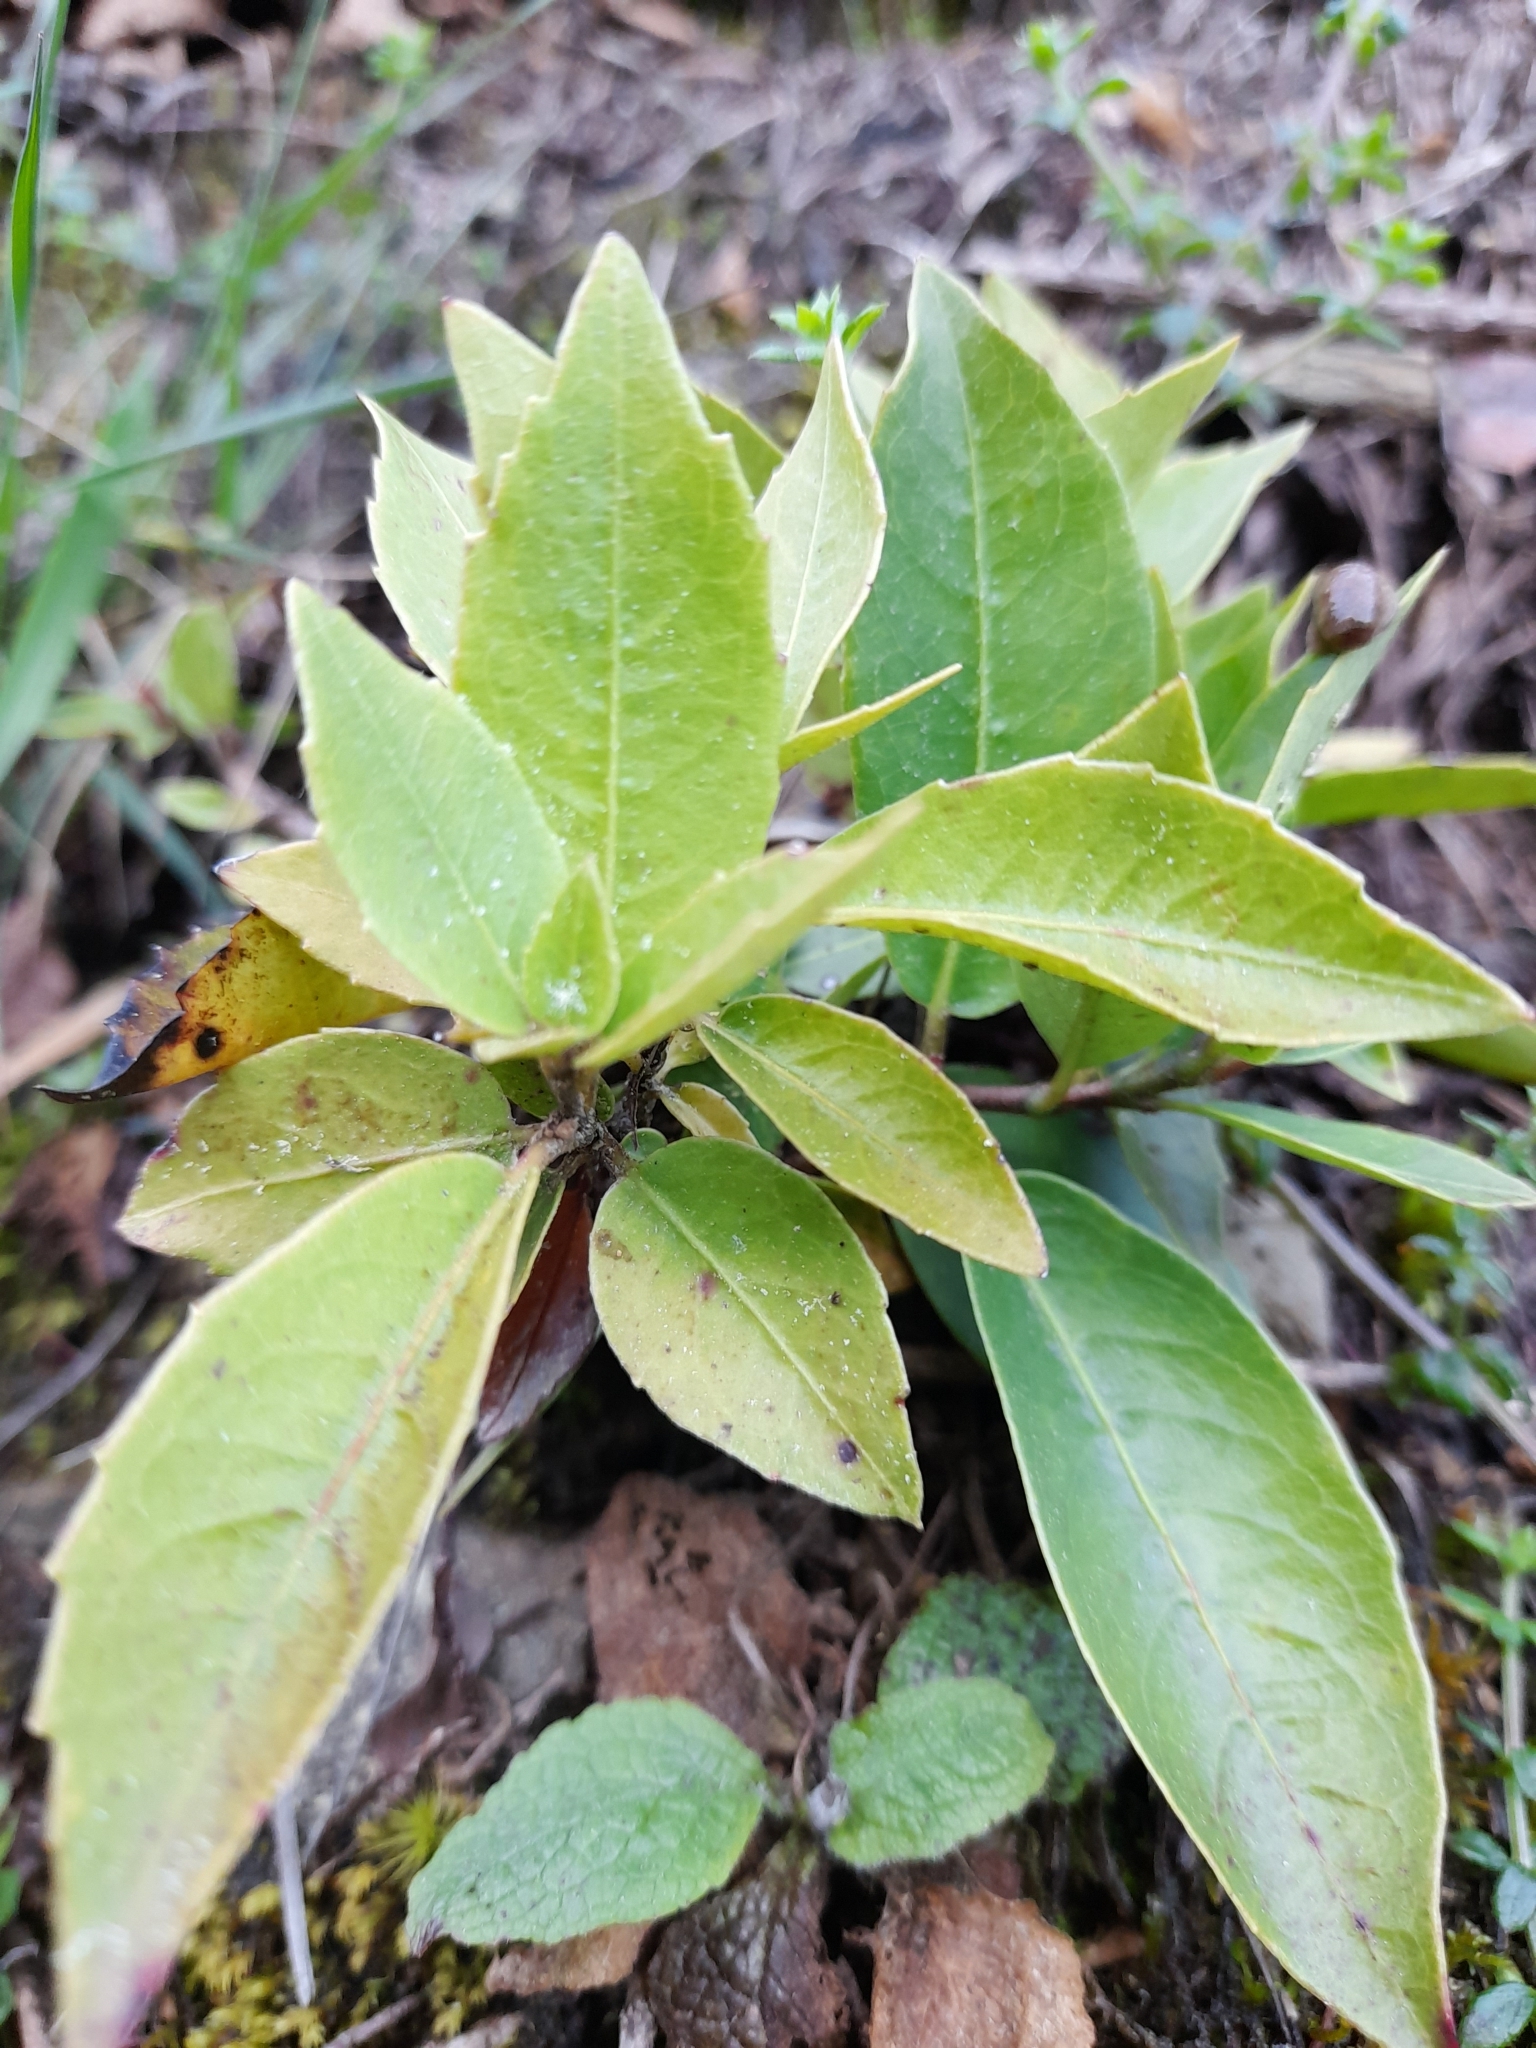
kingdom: Plantae
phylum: Tracheophyta
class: Magnoliopsida
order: Cornales
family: Hydrangeaceae
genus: Hydrangea
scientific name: Hydrangea serratifolia
